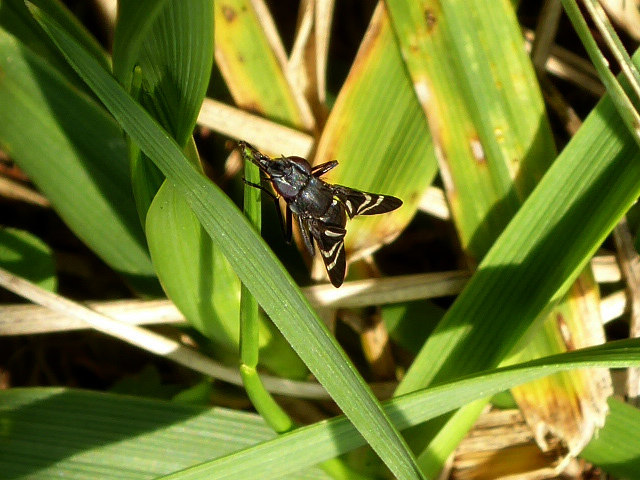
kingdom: Animalia
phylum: Arthropoda
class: Insecta
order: Diptera
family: Ulidiidae
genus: Tritoxa
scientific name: Tritoxa flexa
